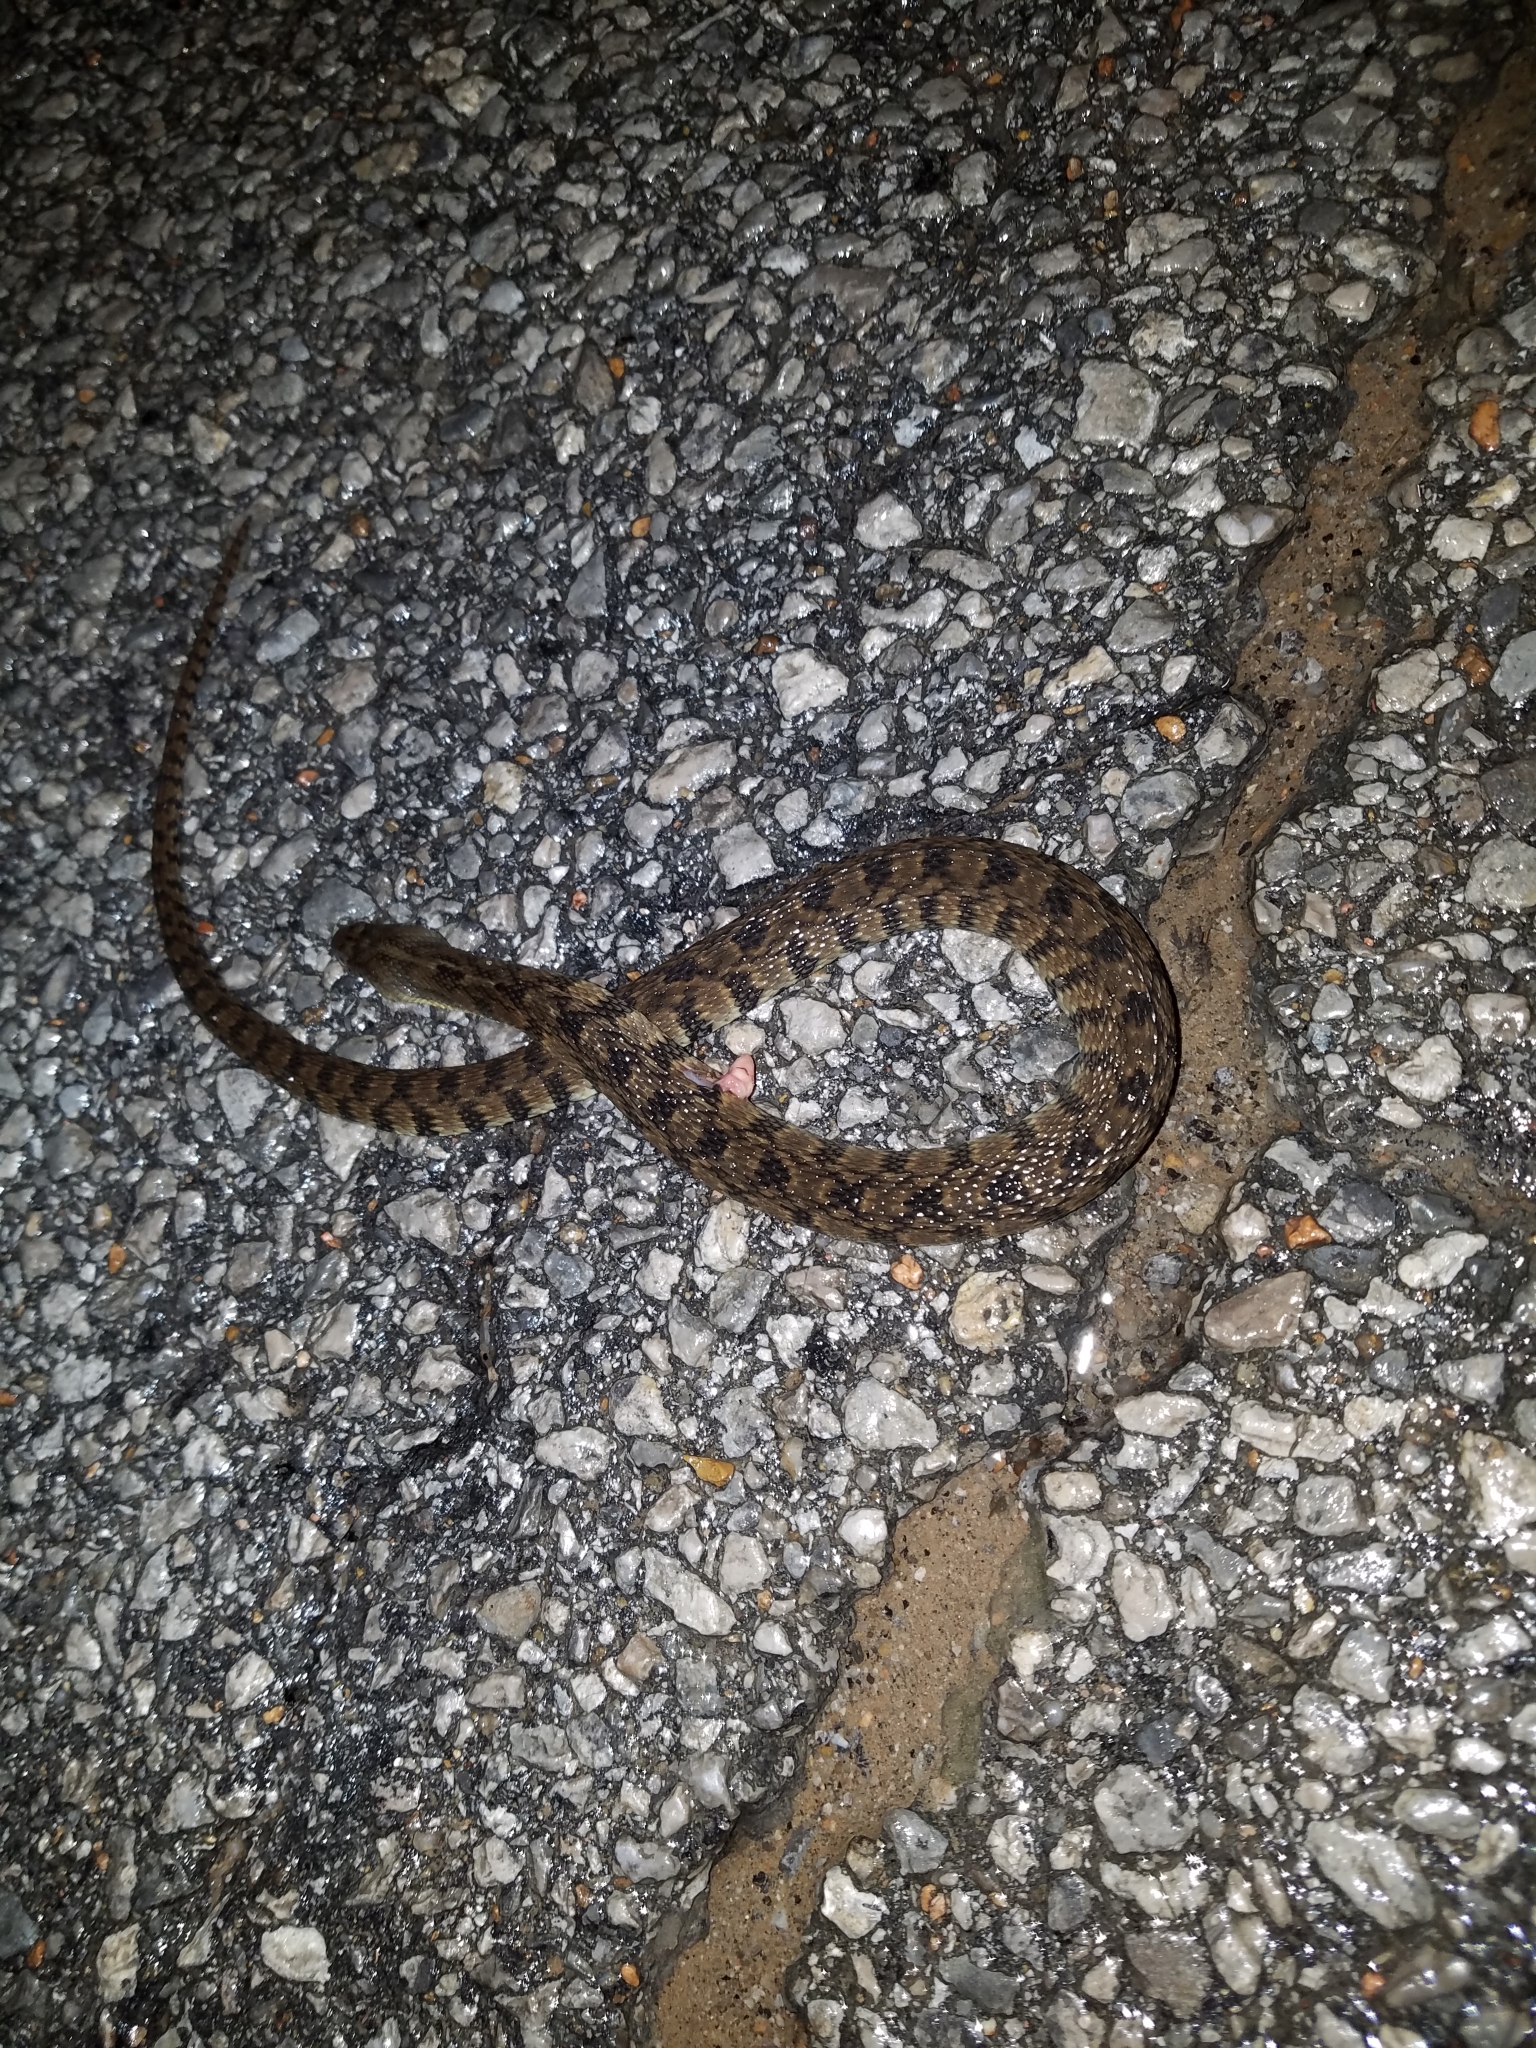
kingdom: Animalia
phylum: Chordata
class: Squamata
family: Colubridae
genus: Nerodia
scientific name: Nerodia rhombifer
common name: Diamondback water snake
